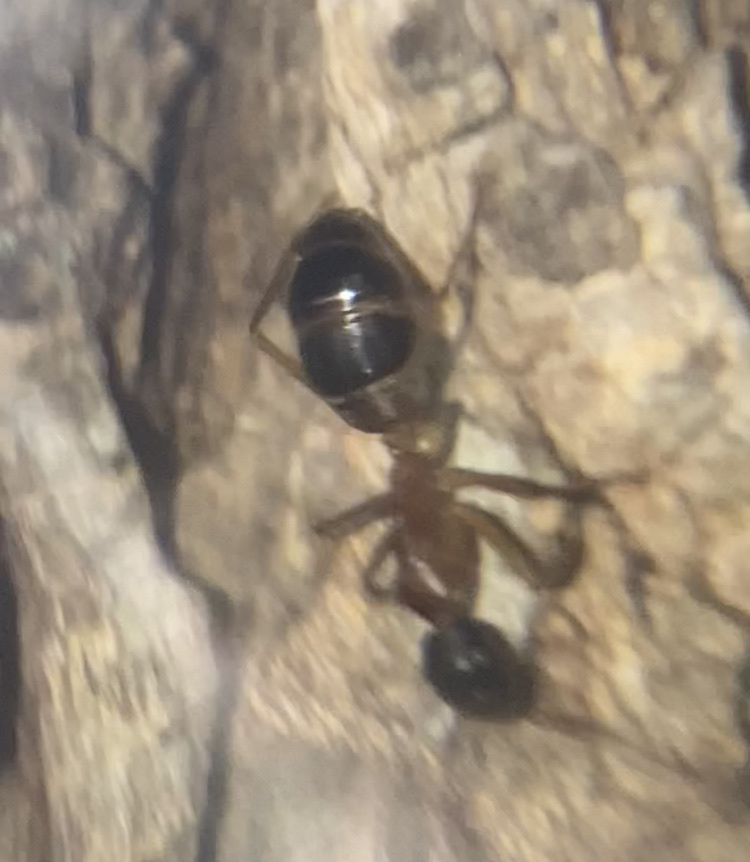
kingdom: Animalia
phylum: Arthropoda
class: Insecta
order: Hymenoptera
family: Formicidae
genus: Camponotus
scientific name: Camponotus consobrinus
